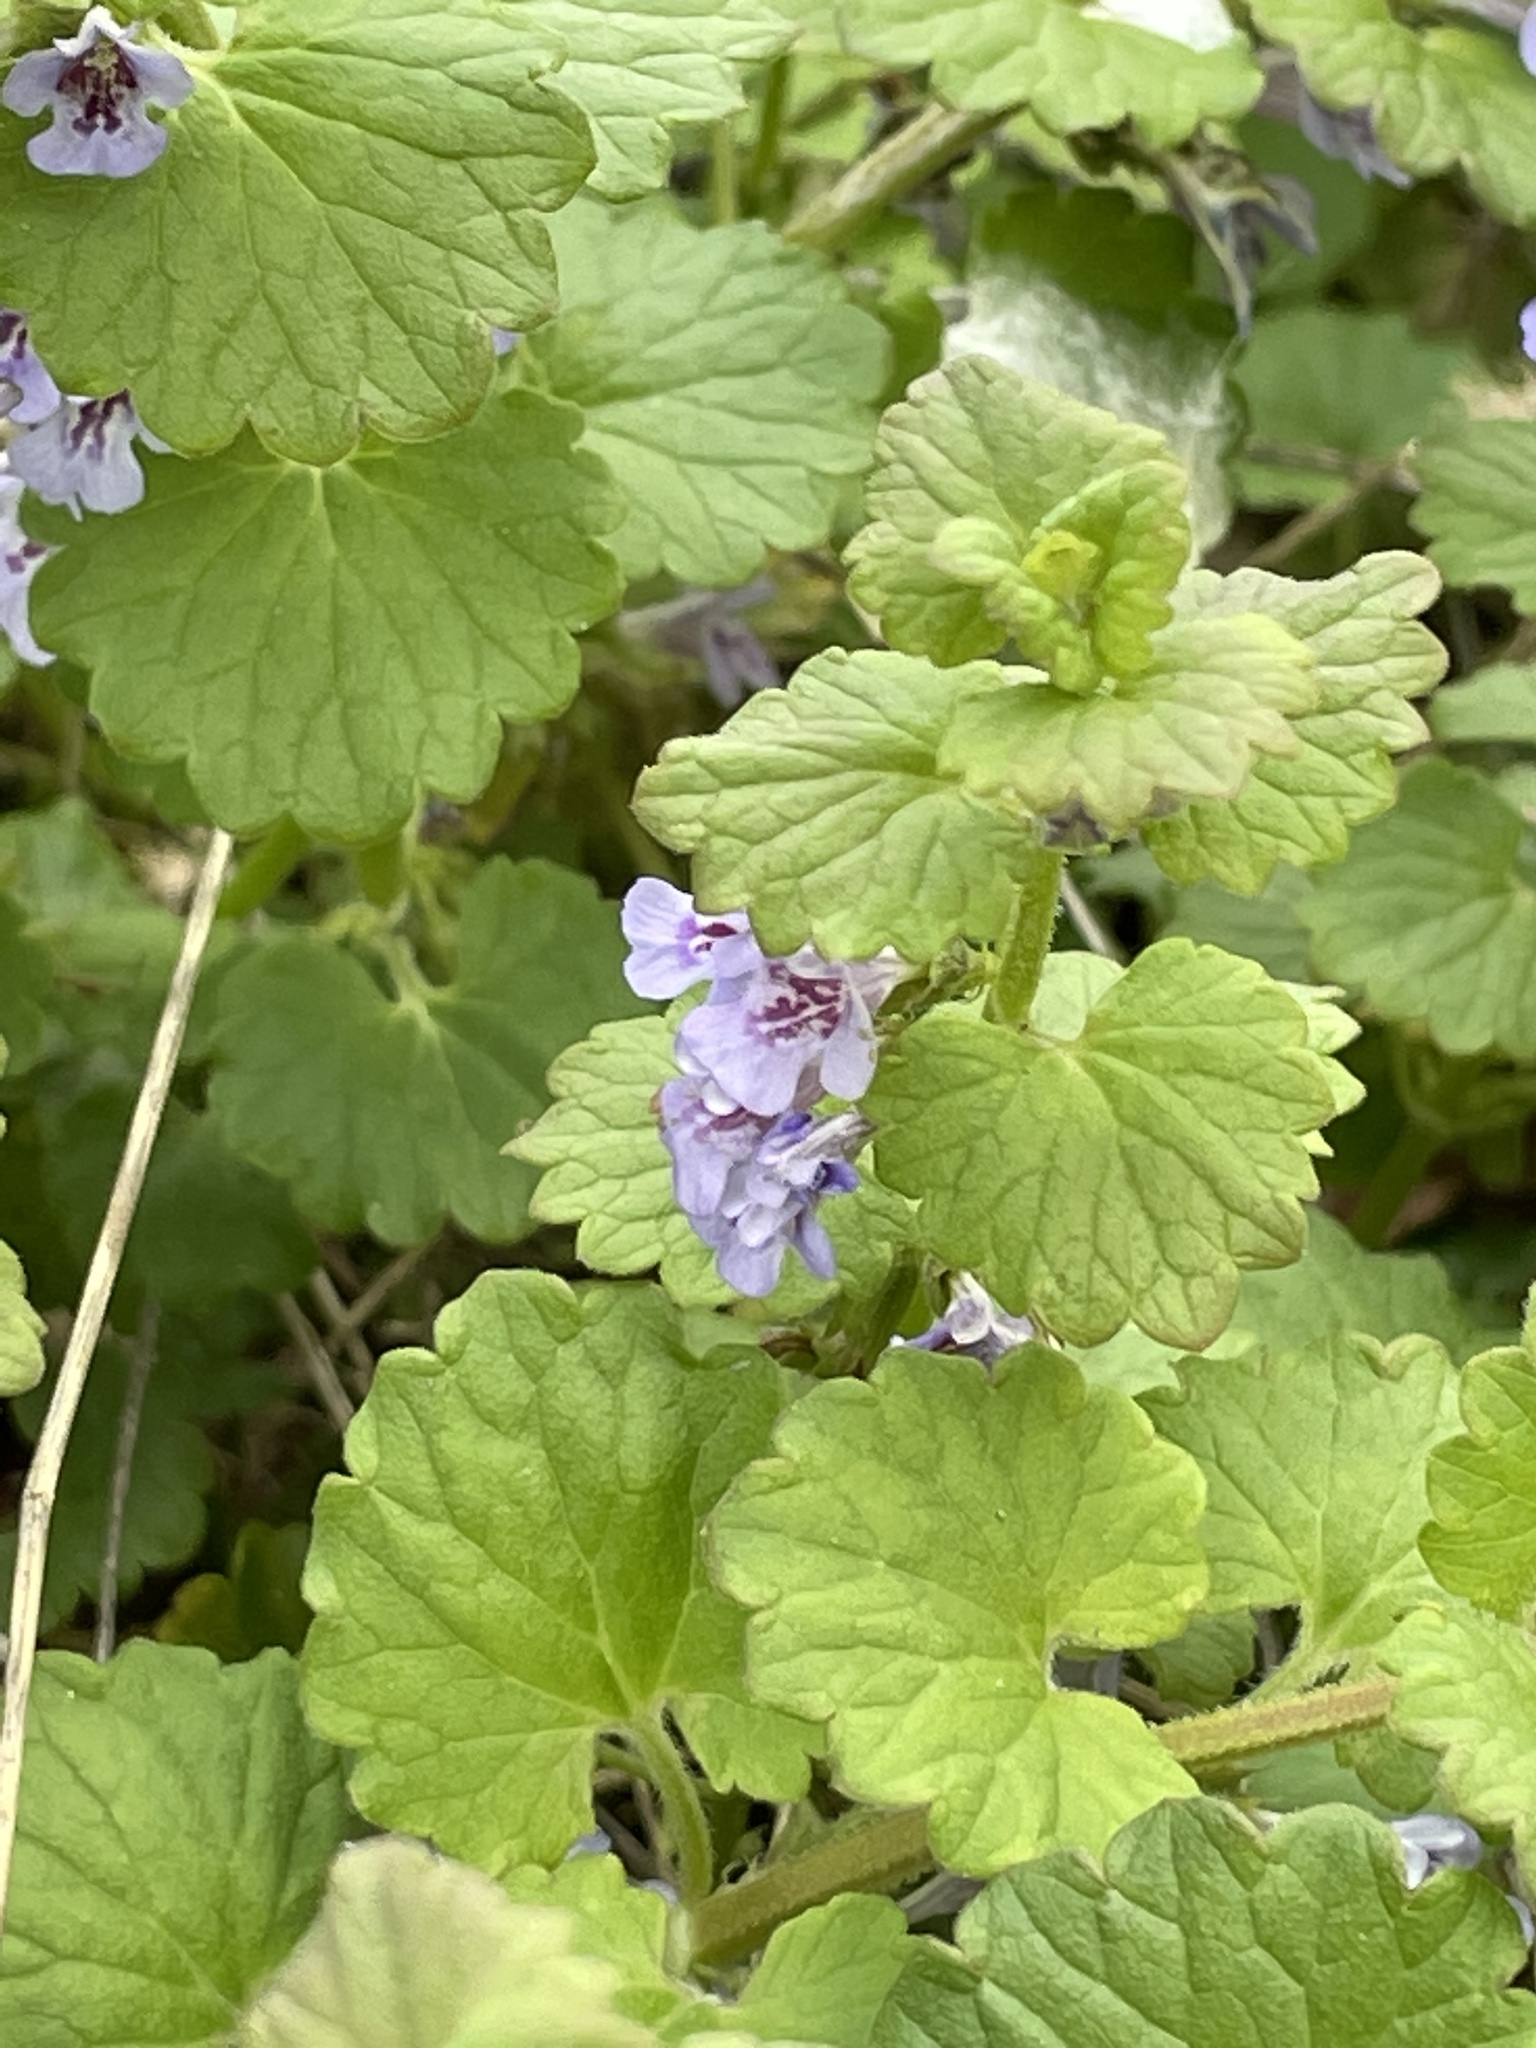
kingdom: Plantae
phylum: Tracheophyta
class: Magnoliopsida
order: Lamiales
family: Lamiaceae
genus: Glechoma
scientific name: Glechoma hederacea
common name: Ground ivy
